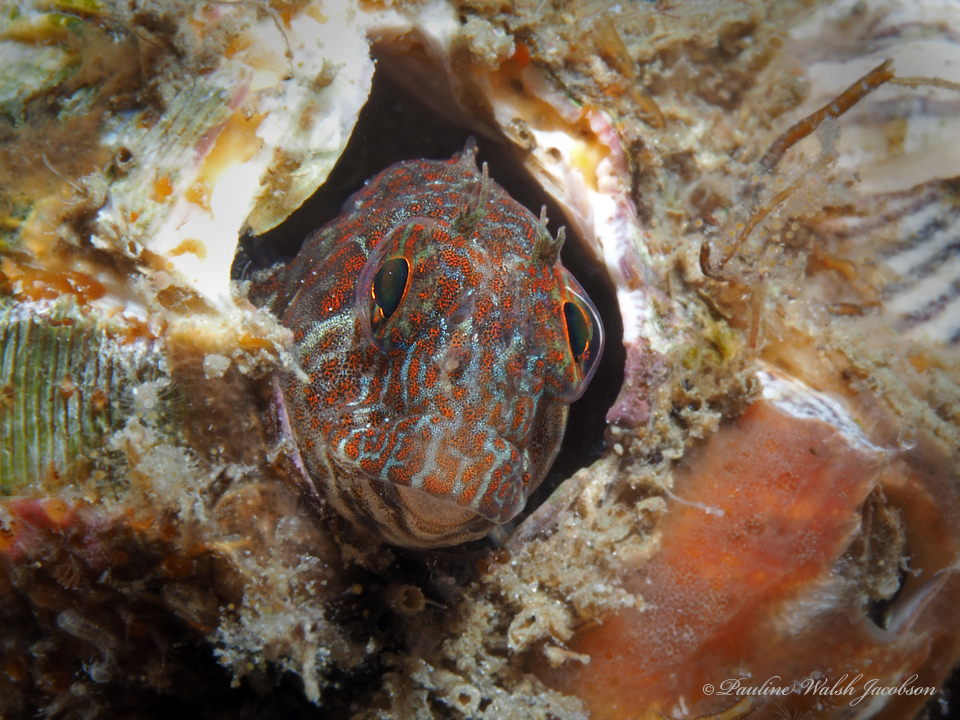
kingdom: Animalia
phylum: Chordata
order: Perciformes
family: Blenniidae
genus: Hypleurochilus
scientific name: Hypleurochilus pseudoaequipinnis
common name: Oyster blenny
